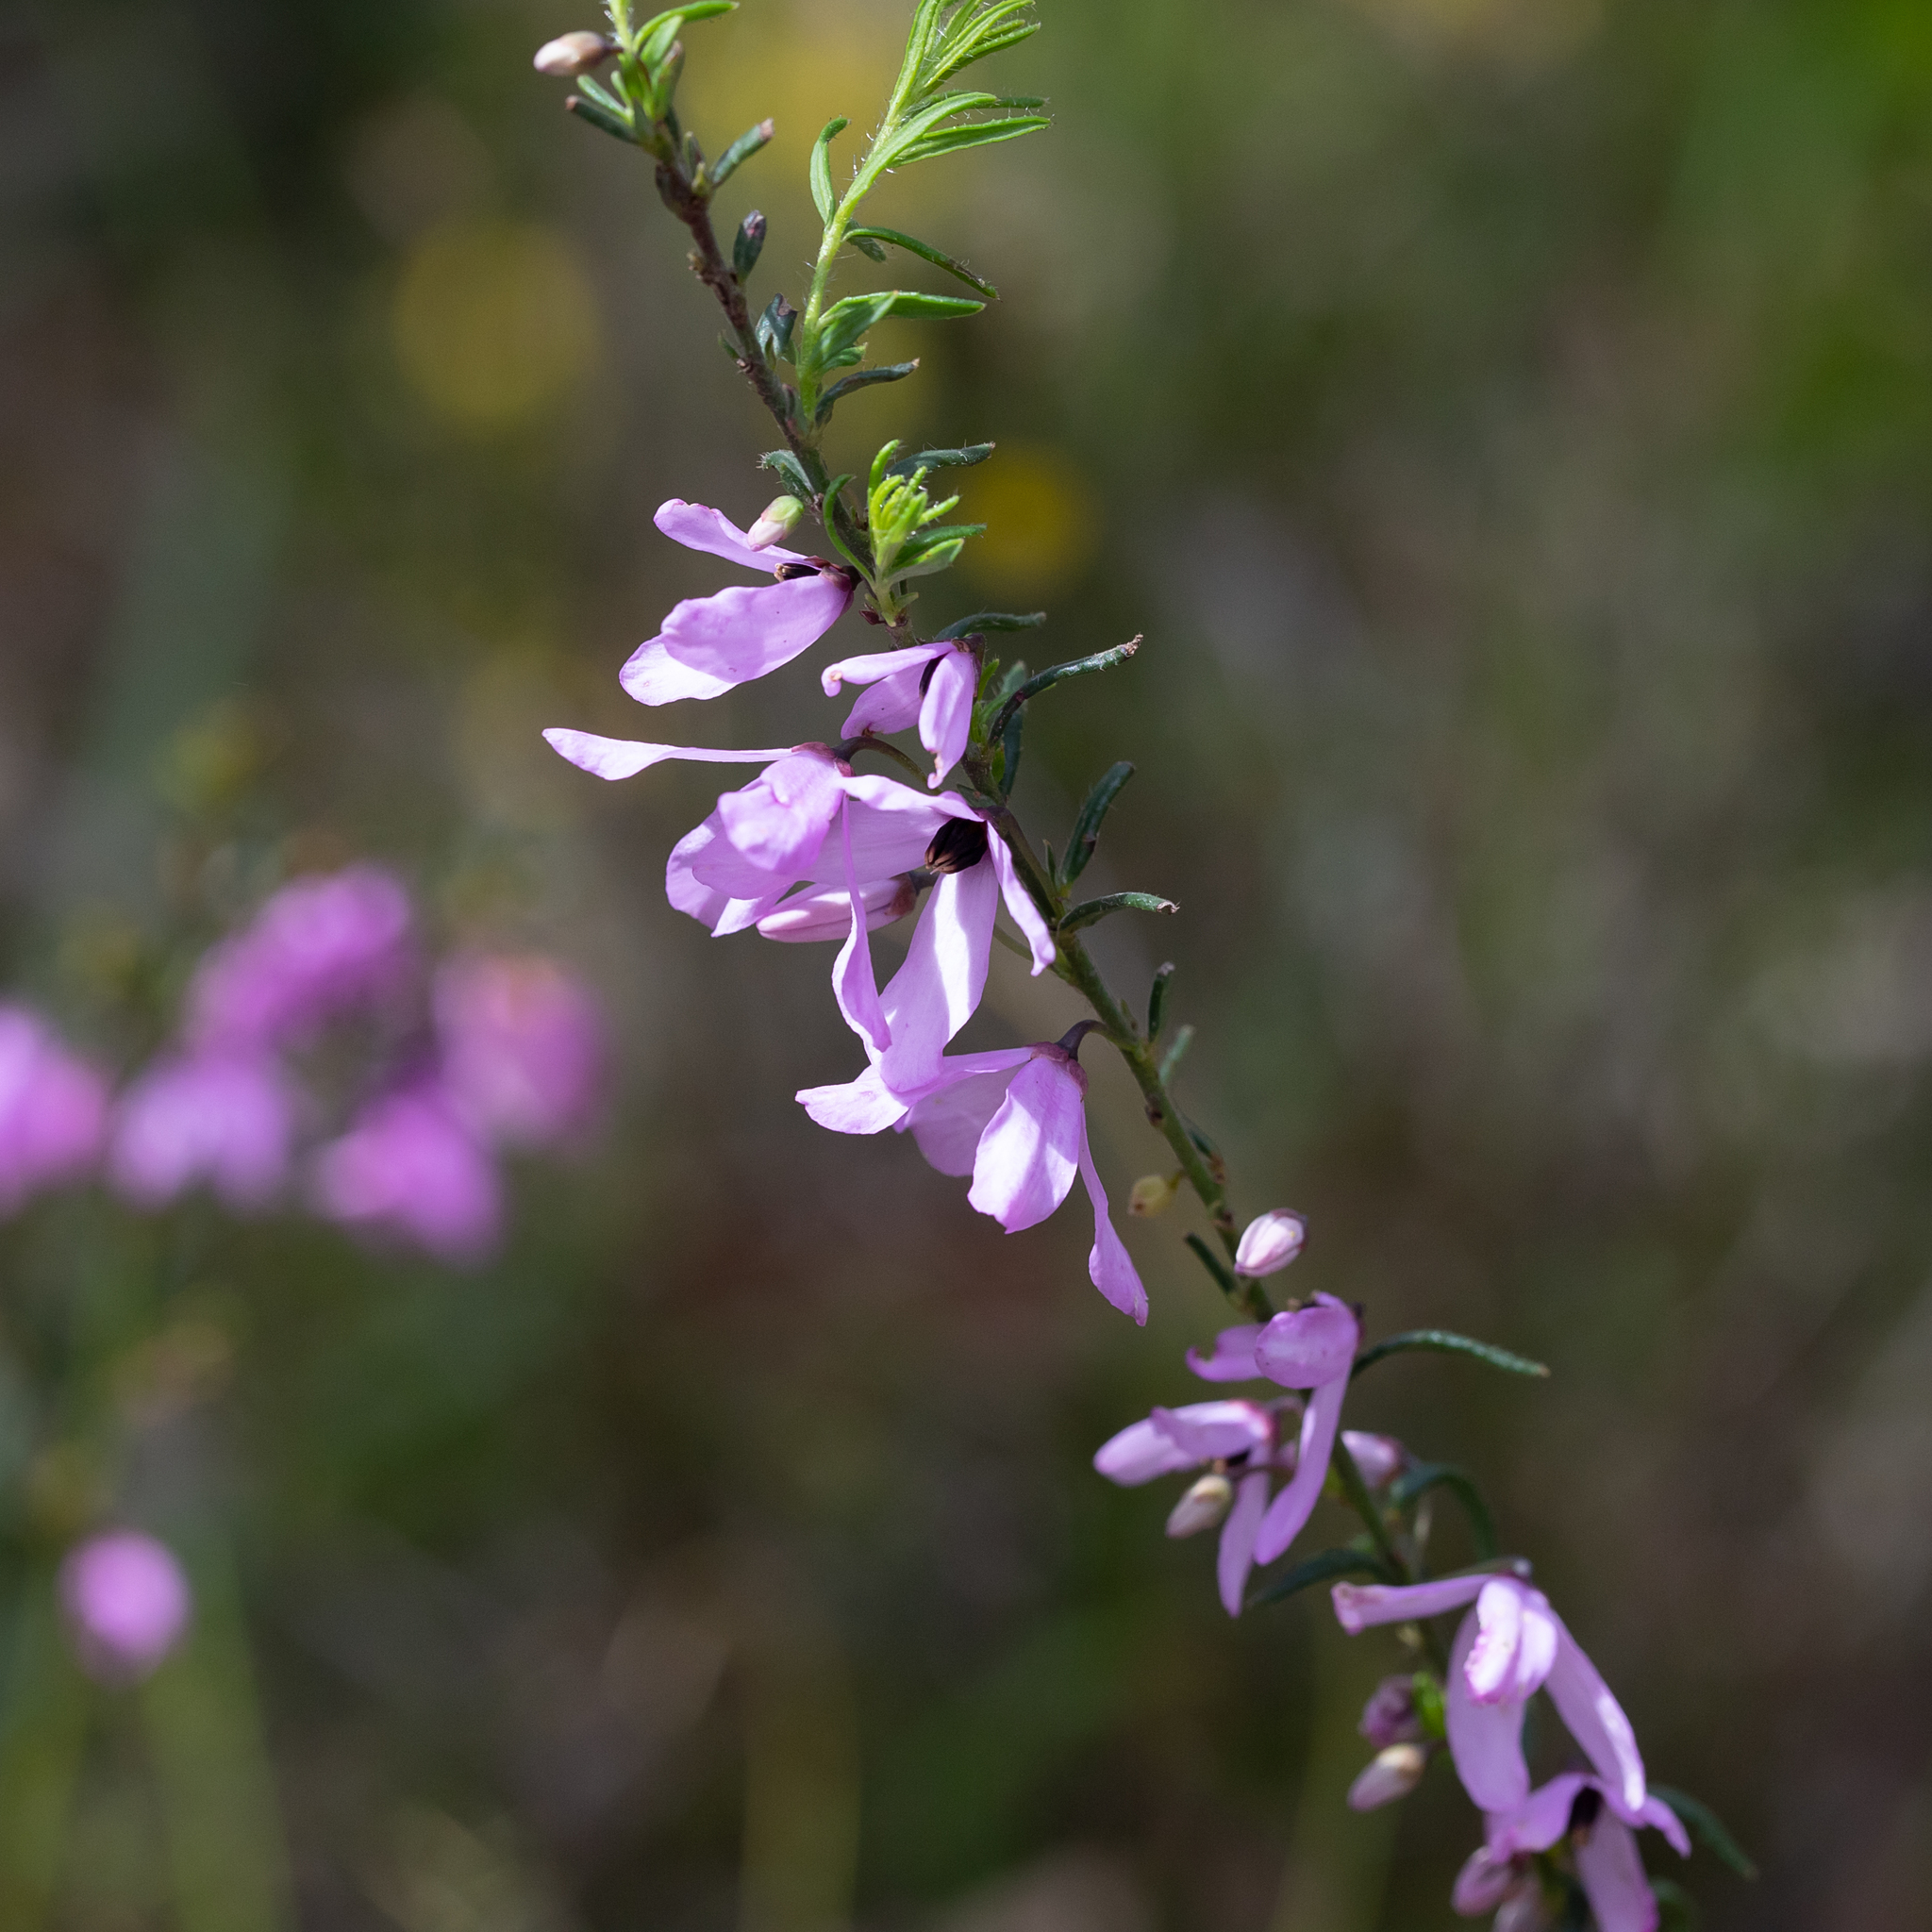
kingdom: Plantae
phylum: Tracheophyta
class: Magnoliopsida
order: Oxalidales
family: Elaeocarpaceae
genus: Tetratheca
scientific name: Tetratheca pilosa
